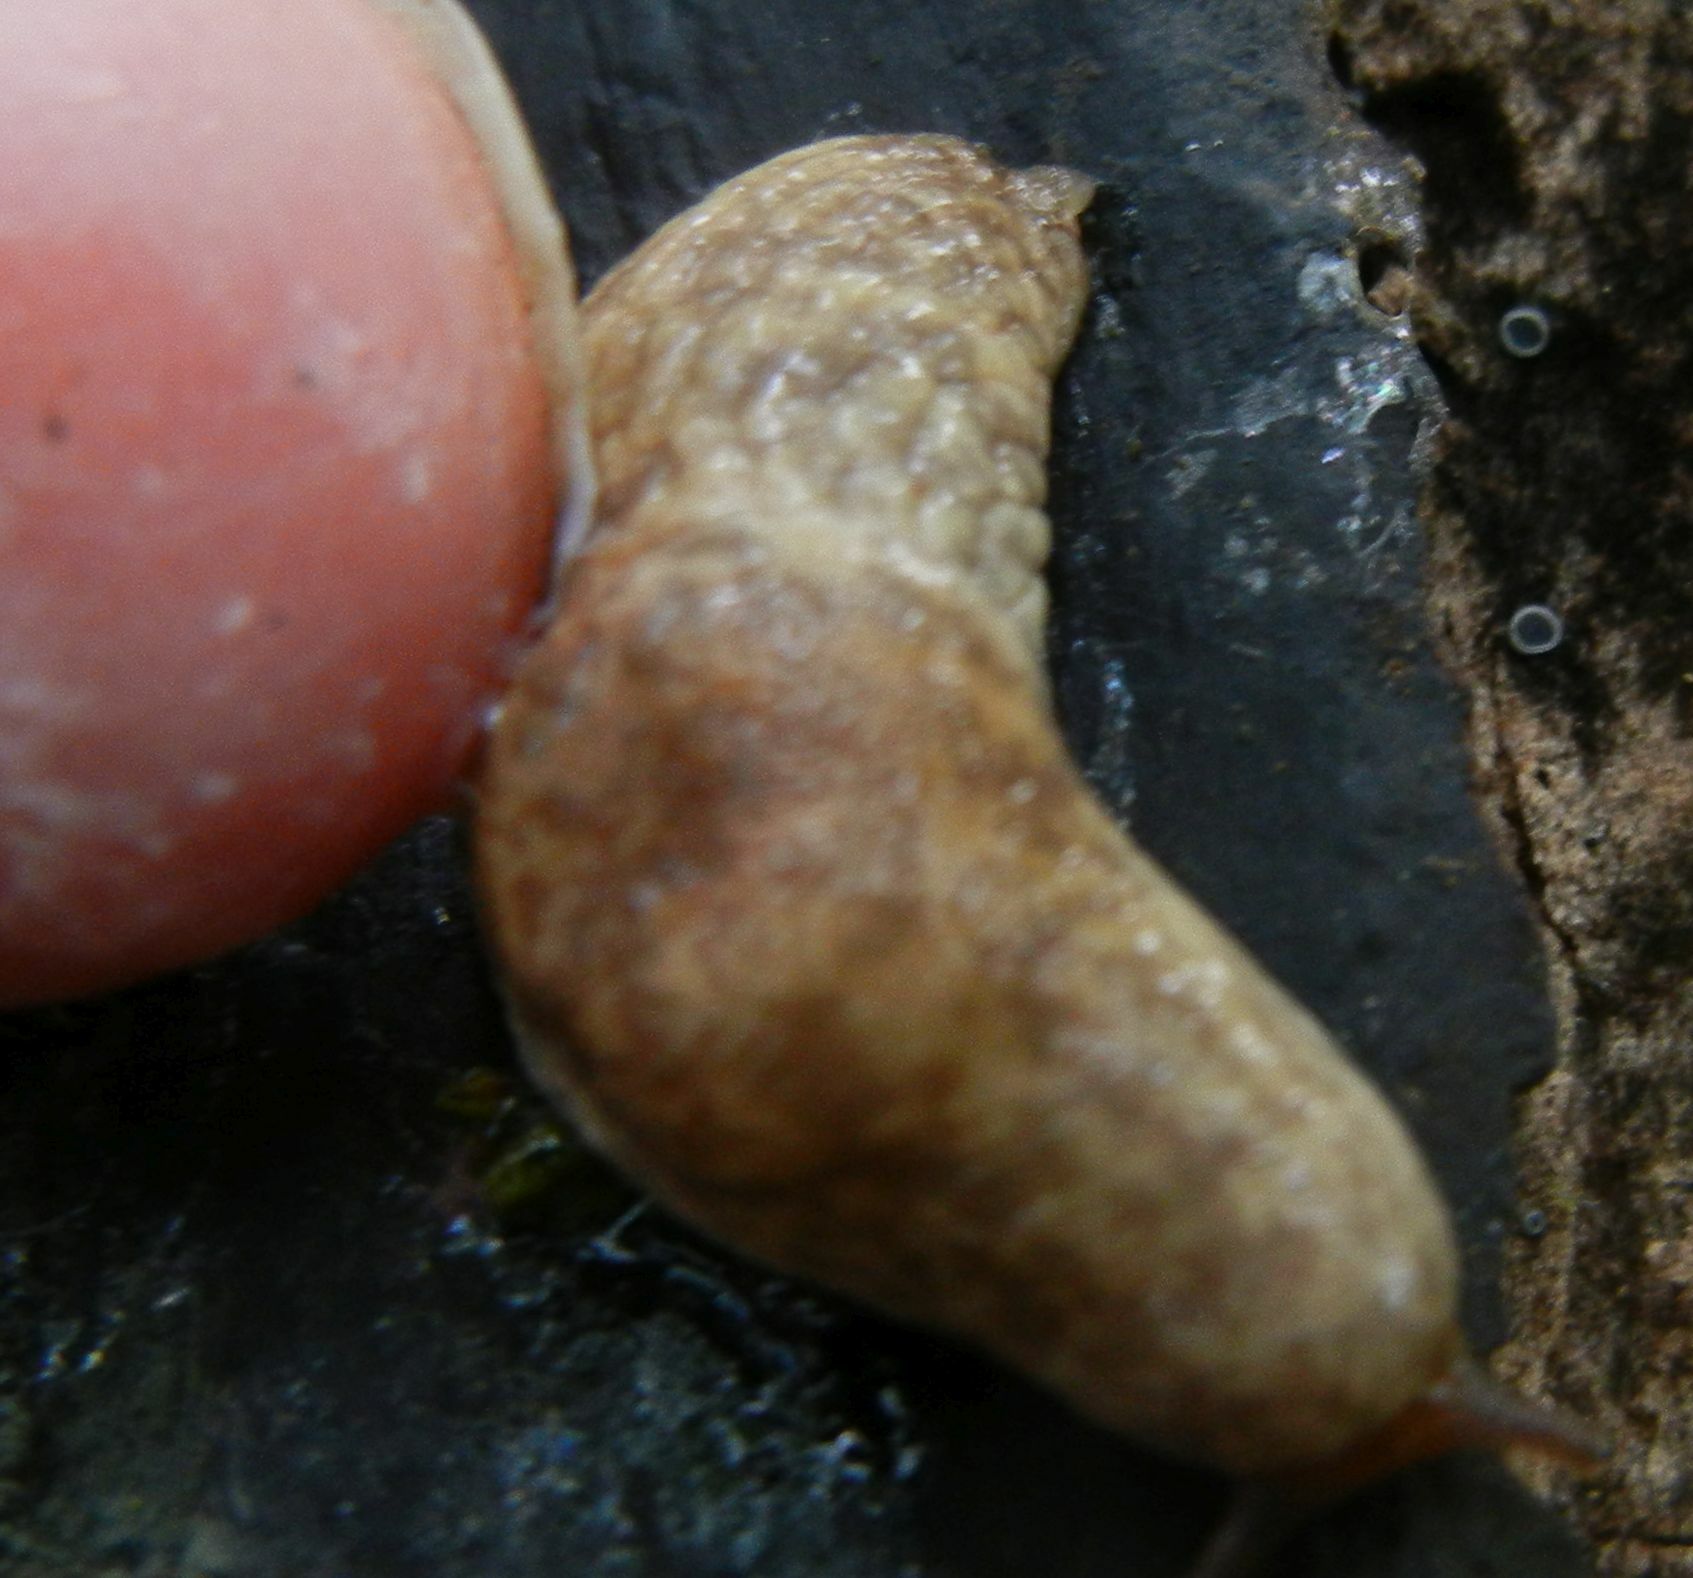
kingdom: Animalia
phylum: Mollusca
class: Gastropoda
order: Stylommatophora
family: Agriolimacidae
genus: Deroceras
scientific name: Deroceras reticulatum
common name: Gray field slug
